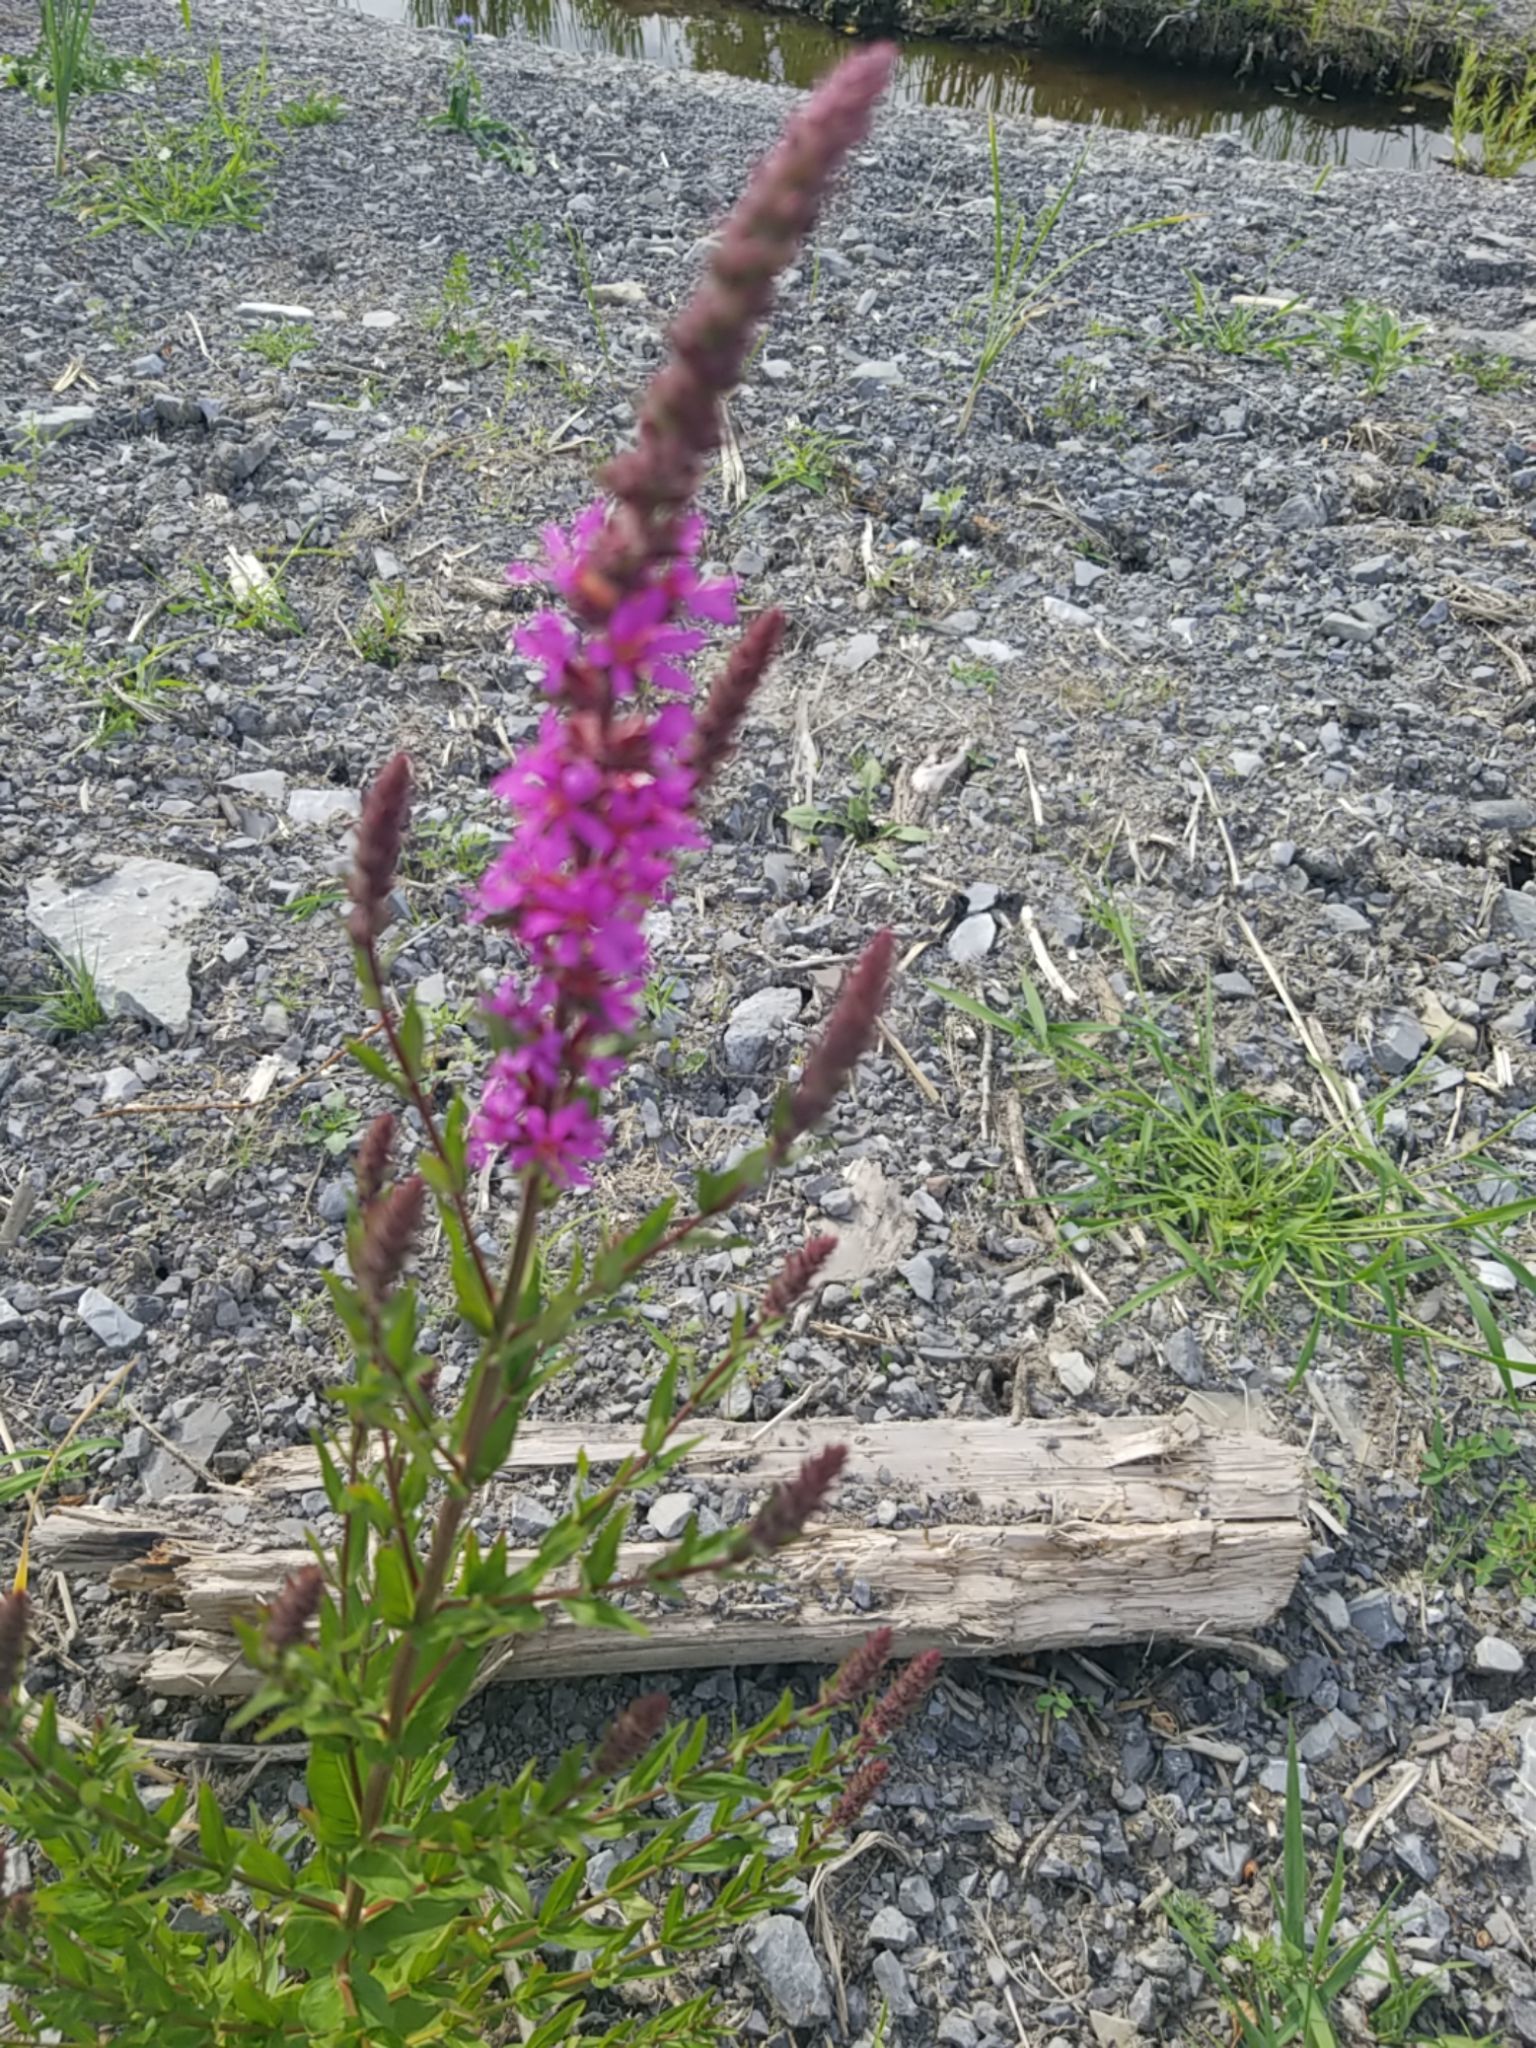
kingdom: Plantae
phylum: Tracheophyta
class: Magnoliopsida
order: Myrtales
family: Lythraceae
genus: Lythrum
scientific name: Lythrum salicaria
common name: Purple loosestrife
